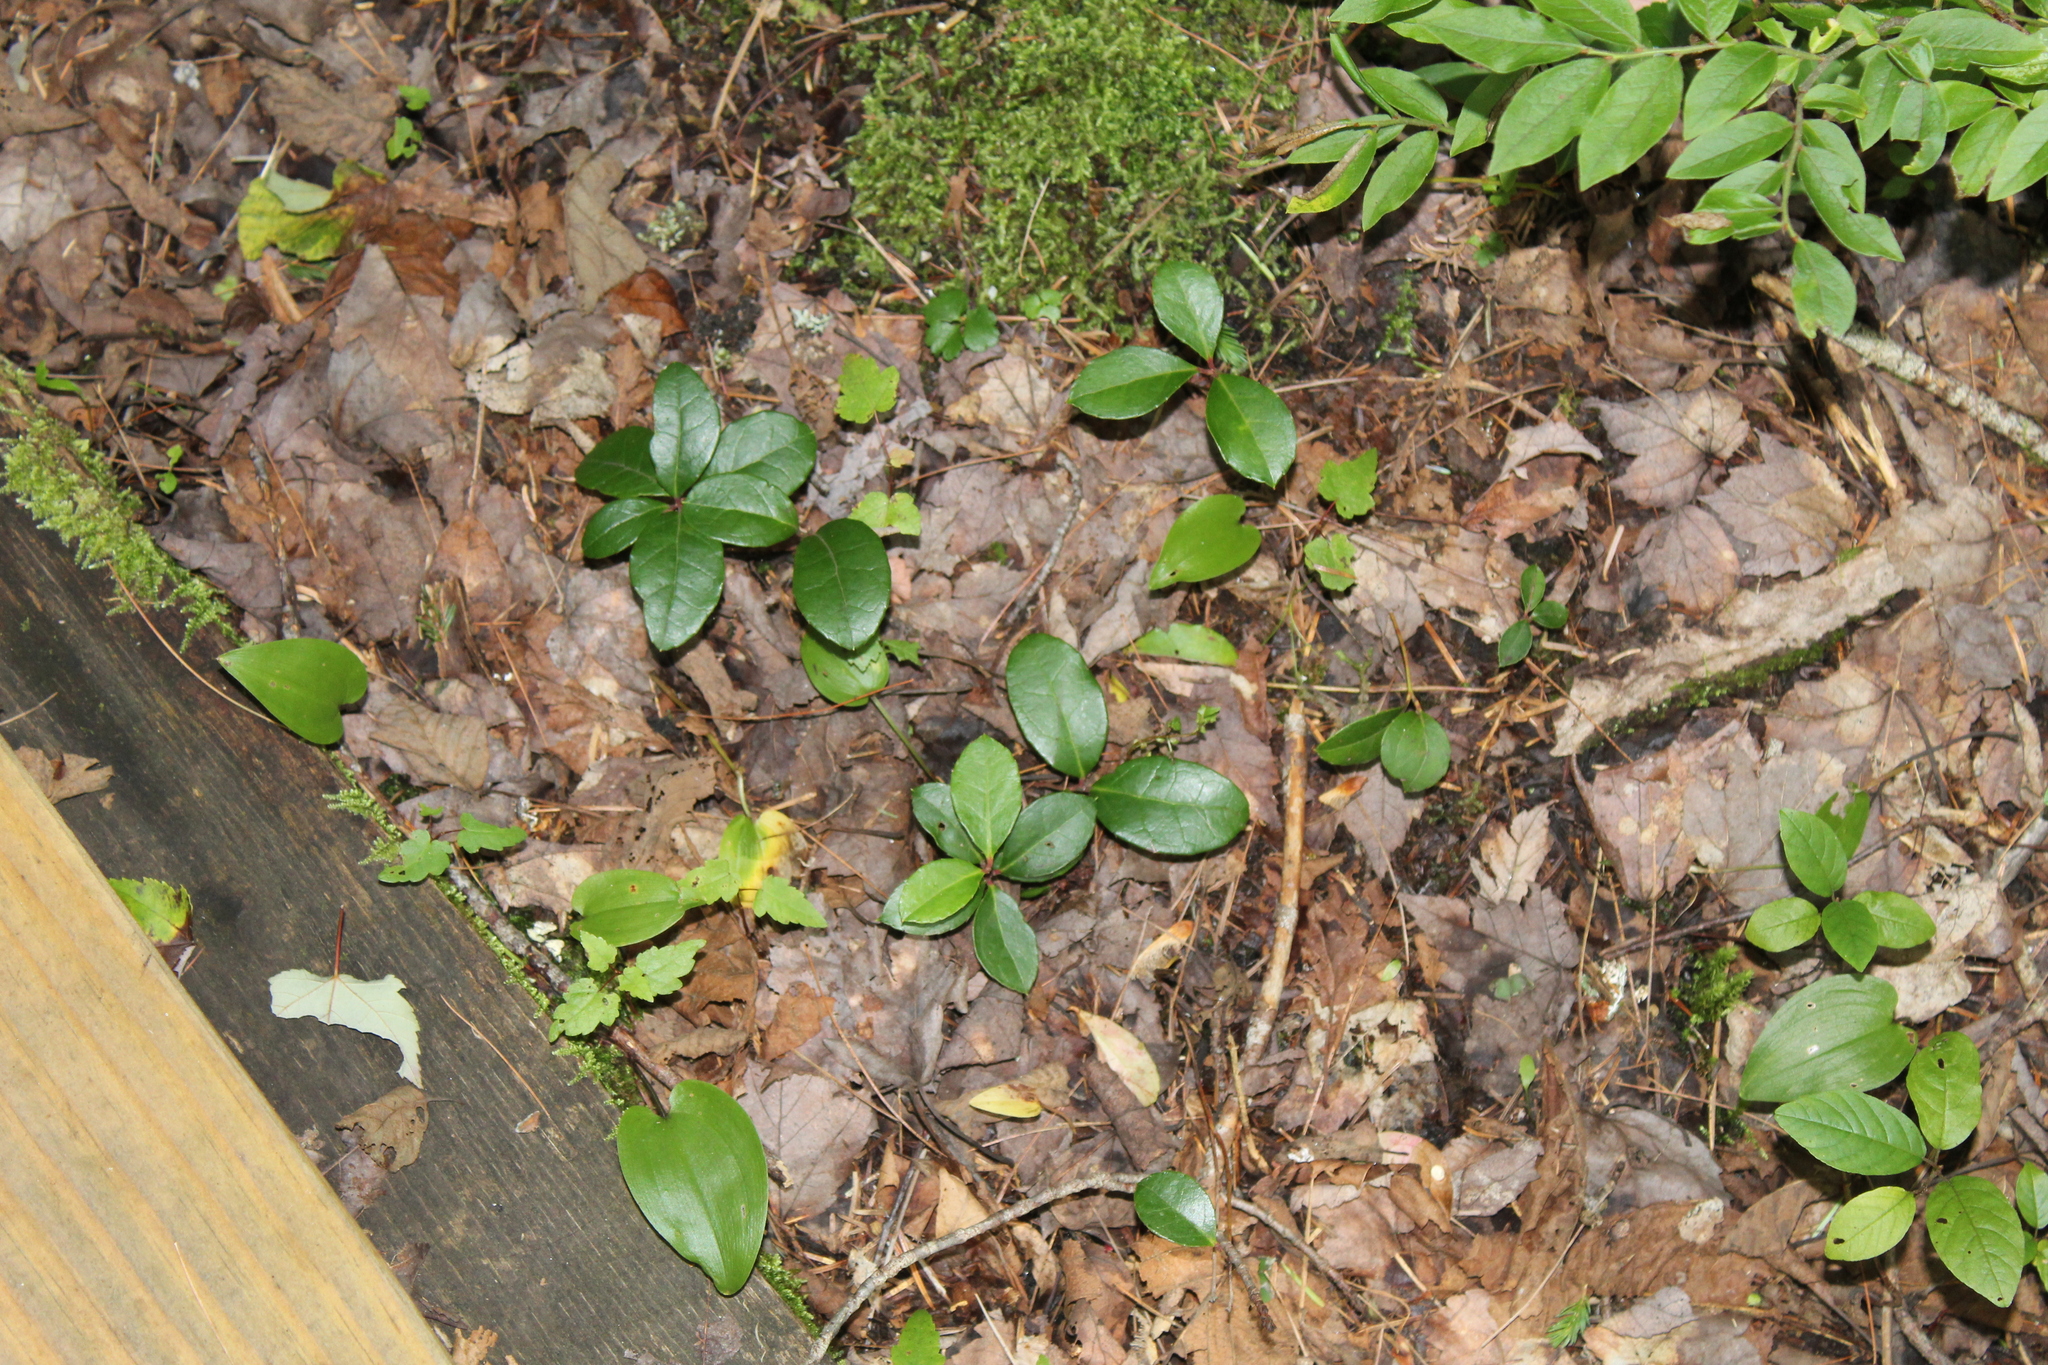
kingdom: Plantae
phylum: Tracheophyta
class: Magnoliopsida
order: Ericales
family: Ericaceae
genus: Gaultheria
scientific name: Gaultheria procumbens
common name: Checkerberry
